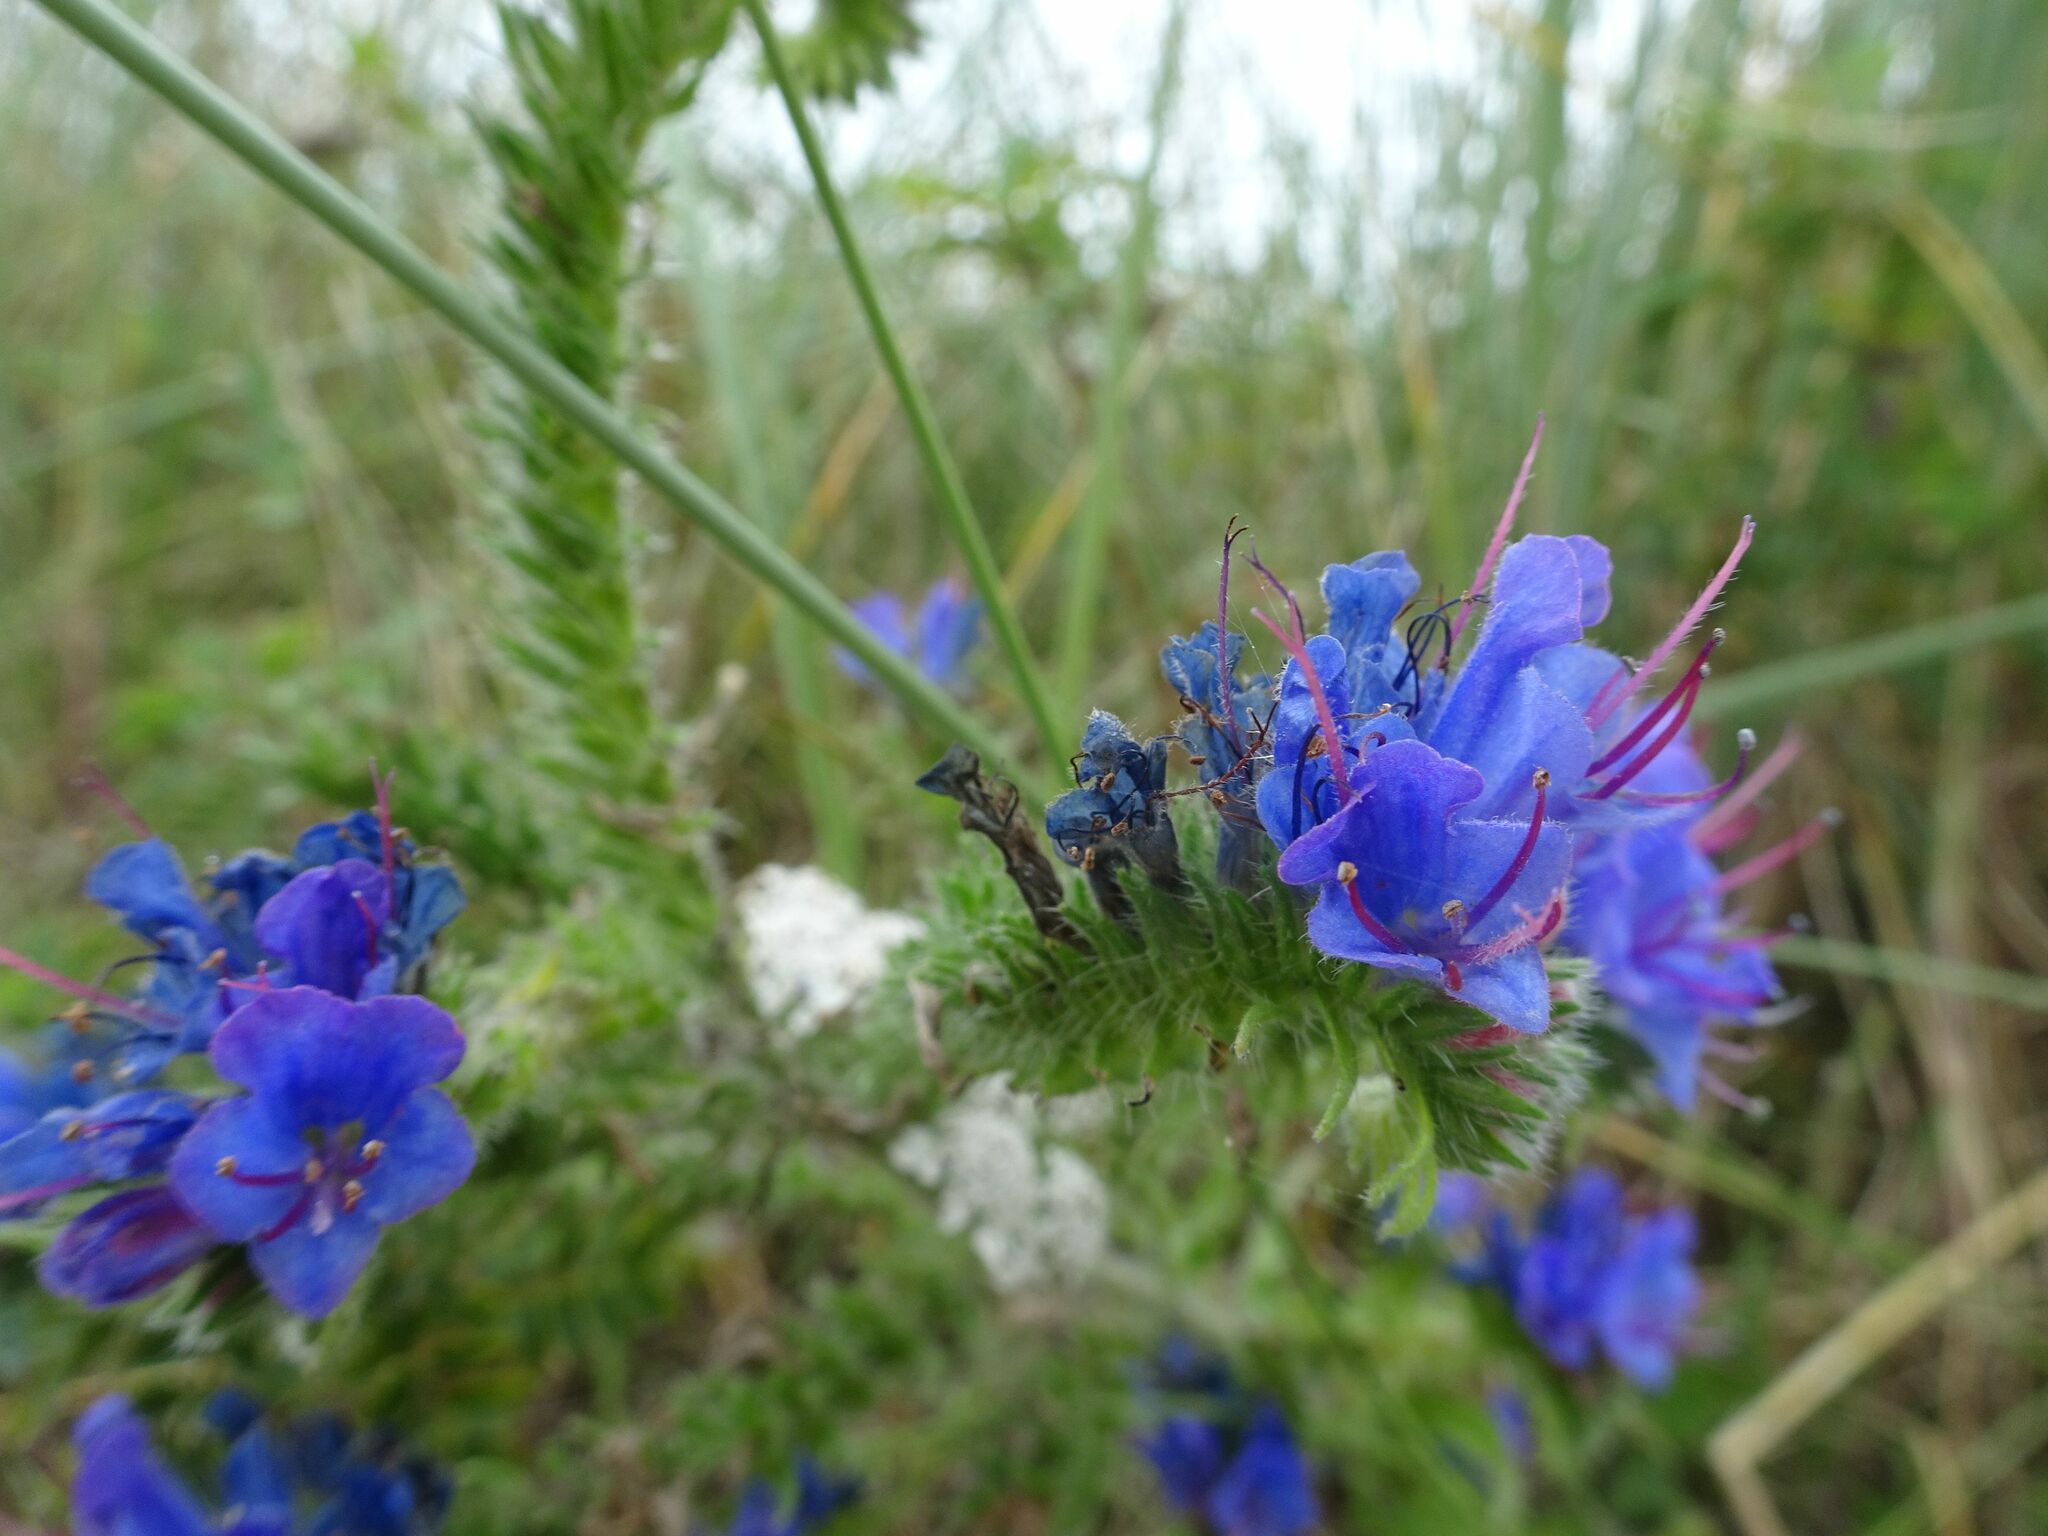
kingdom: Plantae
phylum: Tracheophyta
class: Magnoliopsida
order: Boraginales
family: Boraginaceae
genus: Echium
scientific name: Echium vulgare
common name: Common viper's bugloss
